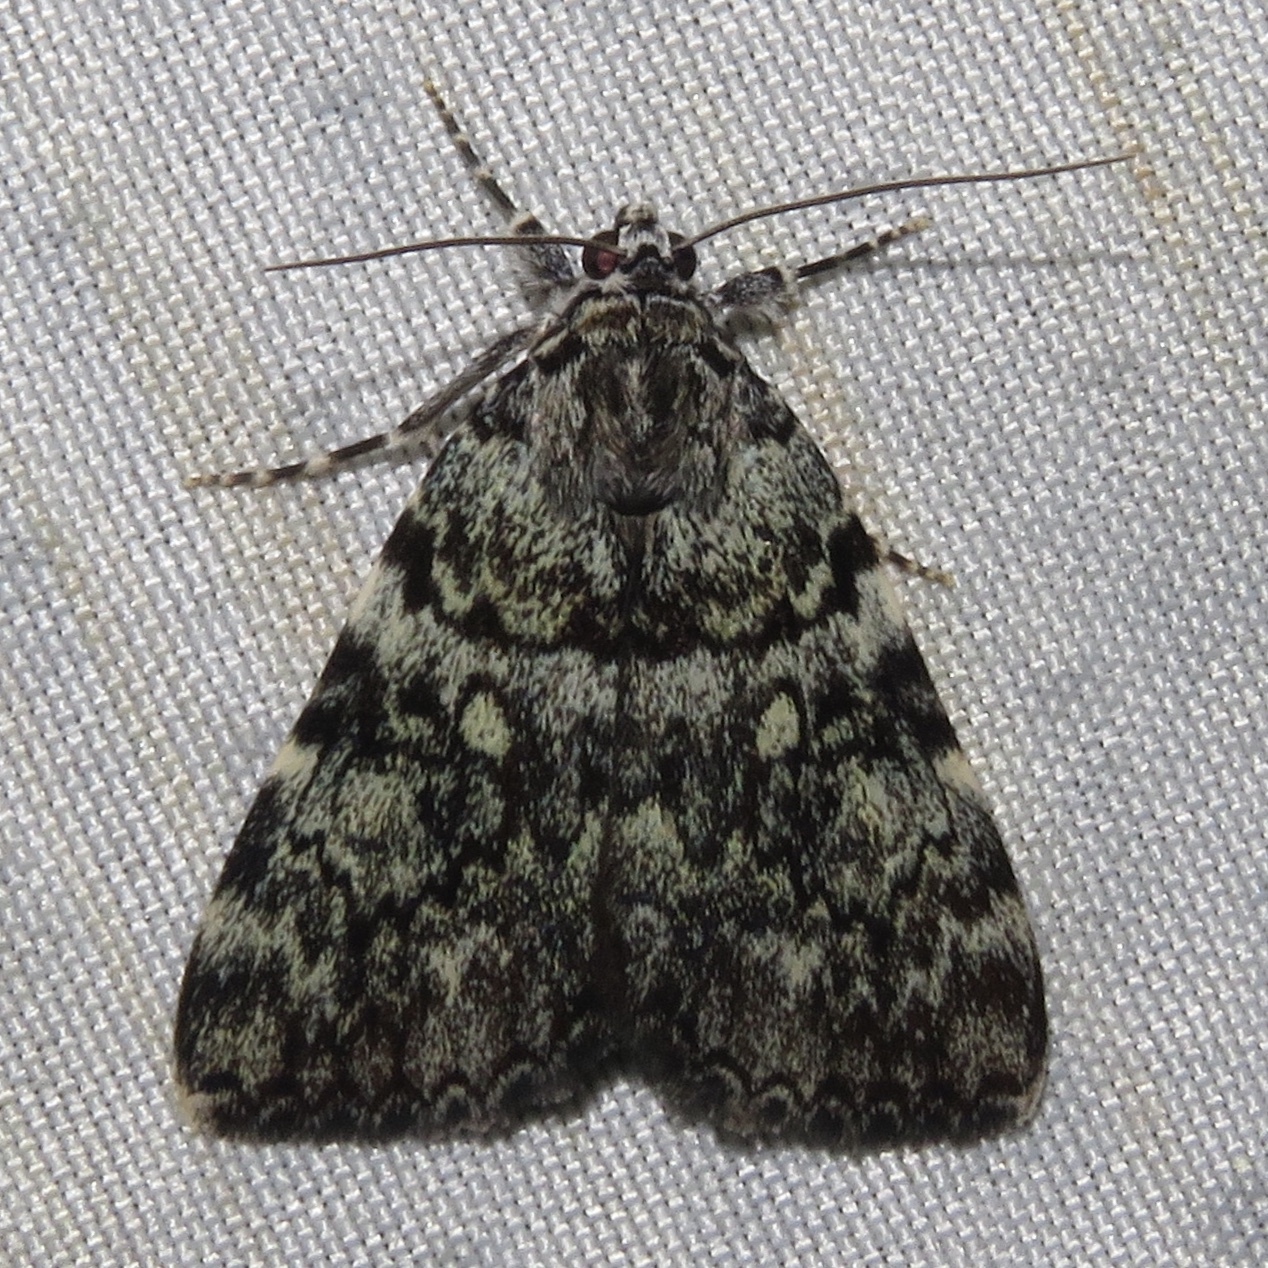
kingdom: Animalia
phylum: Arthropoda
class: Insecta
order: Lepidoptera
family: Erebidae
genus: Catocala
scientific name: Catocala lineella
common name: Little lined underwing
